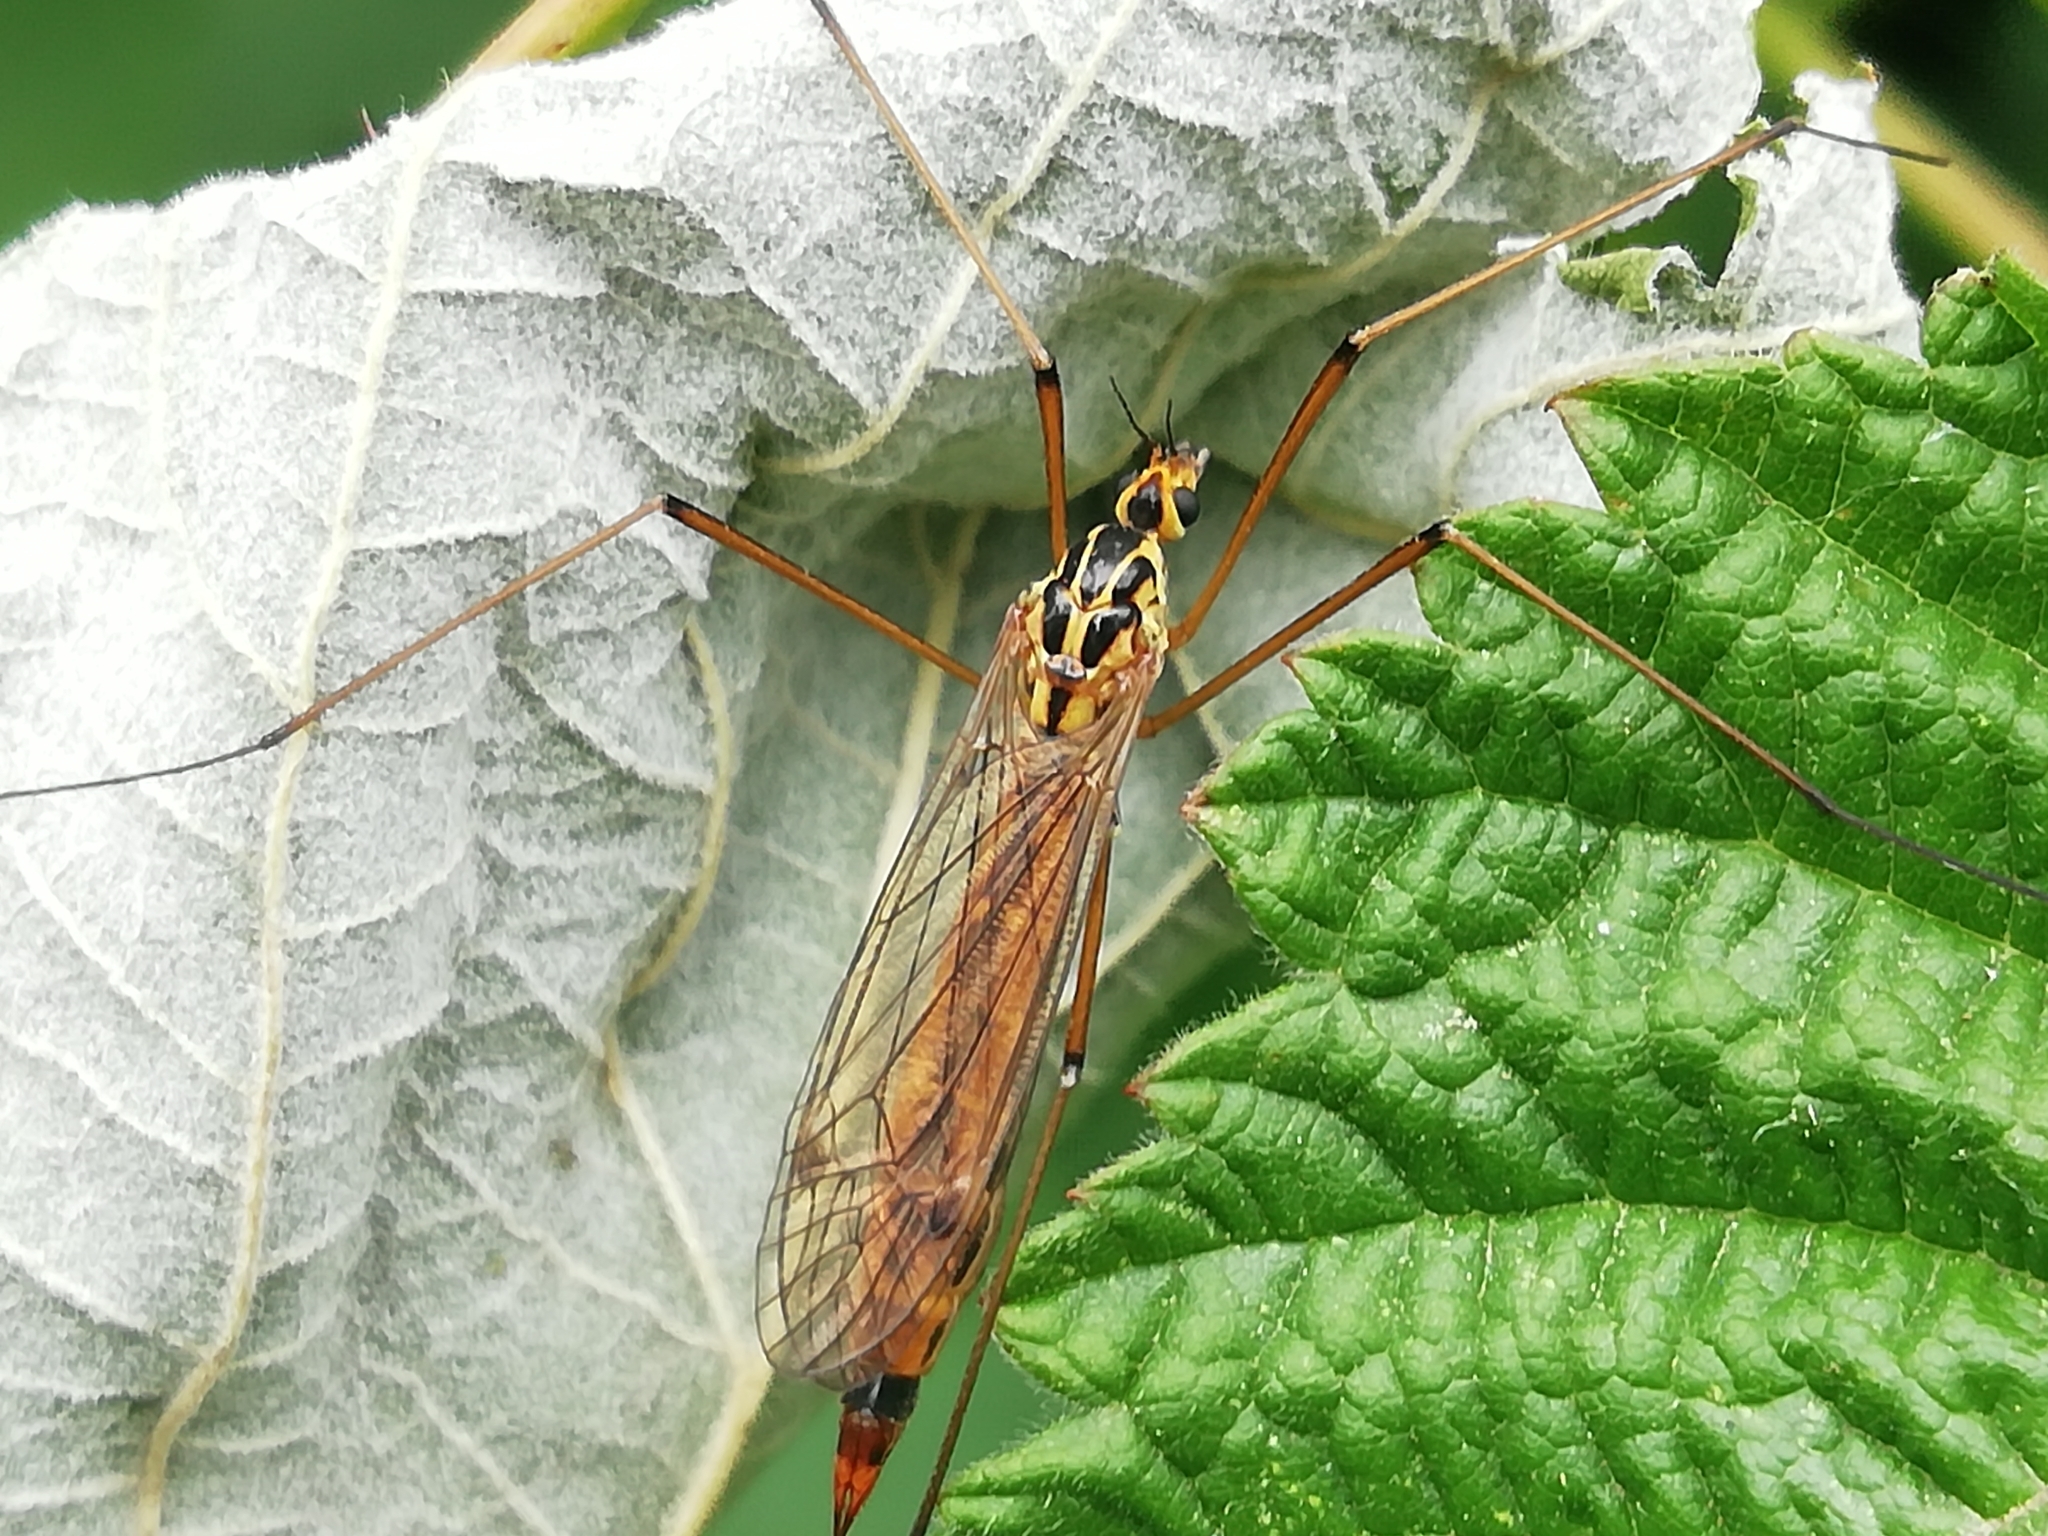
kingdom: Animalia
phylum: Arthropoda
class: Insecta
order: Diptera
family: Tipulidae
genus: Nephrotoma
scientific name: Nephrotoma cornicina
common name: Cranefly
